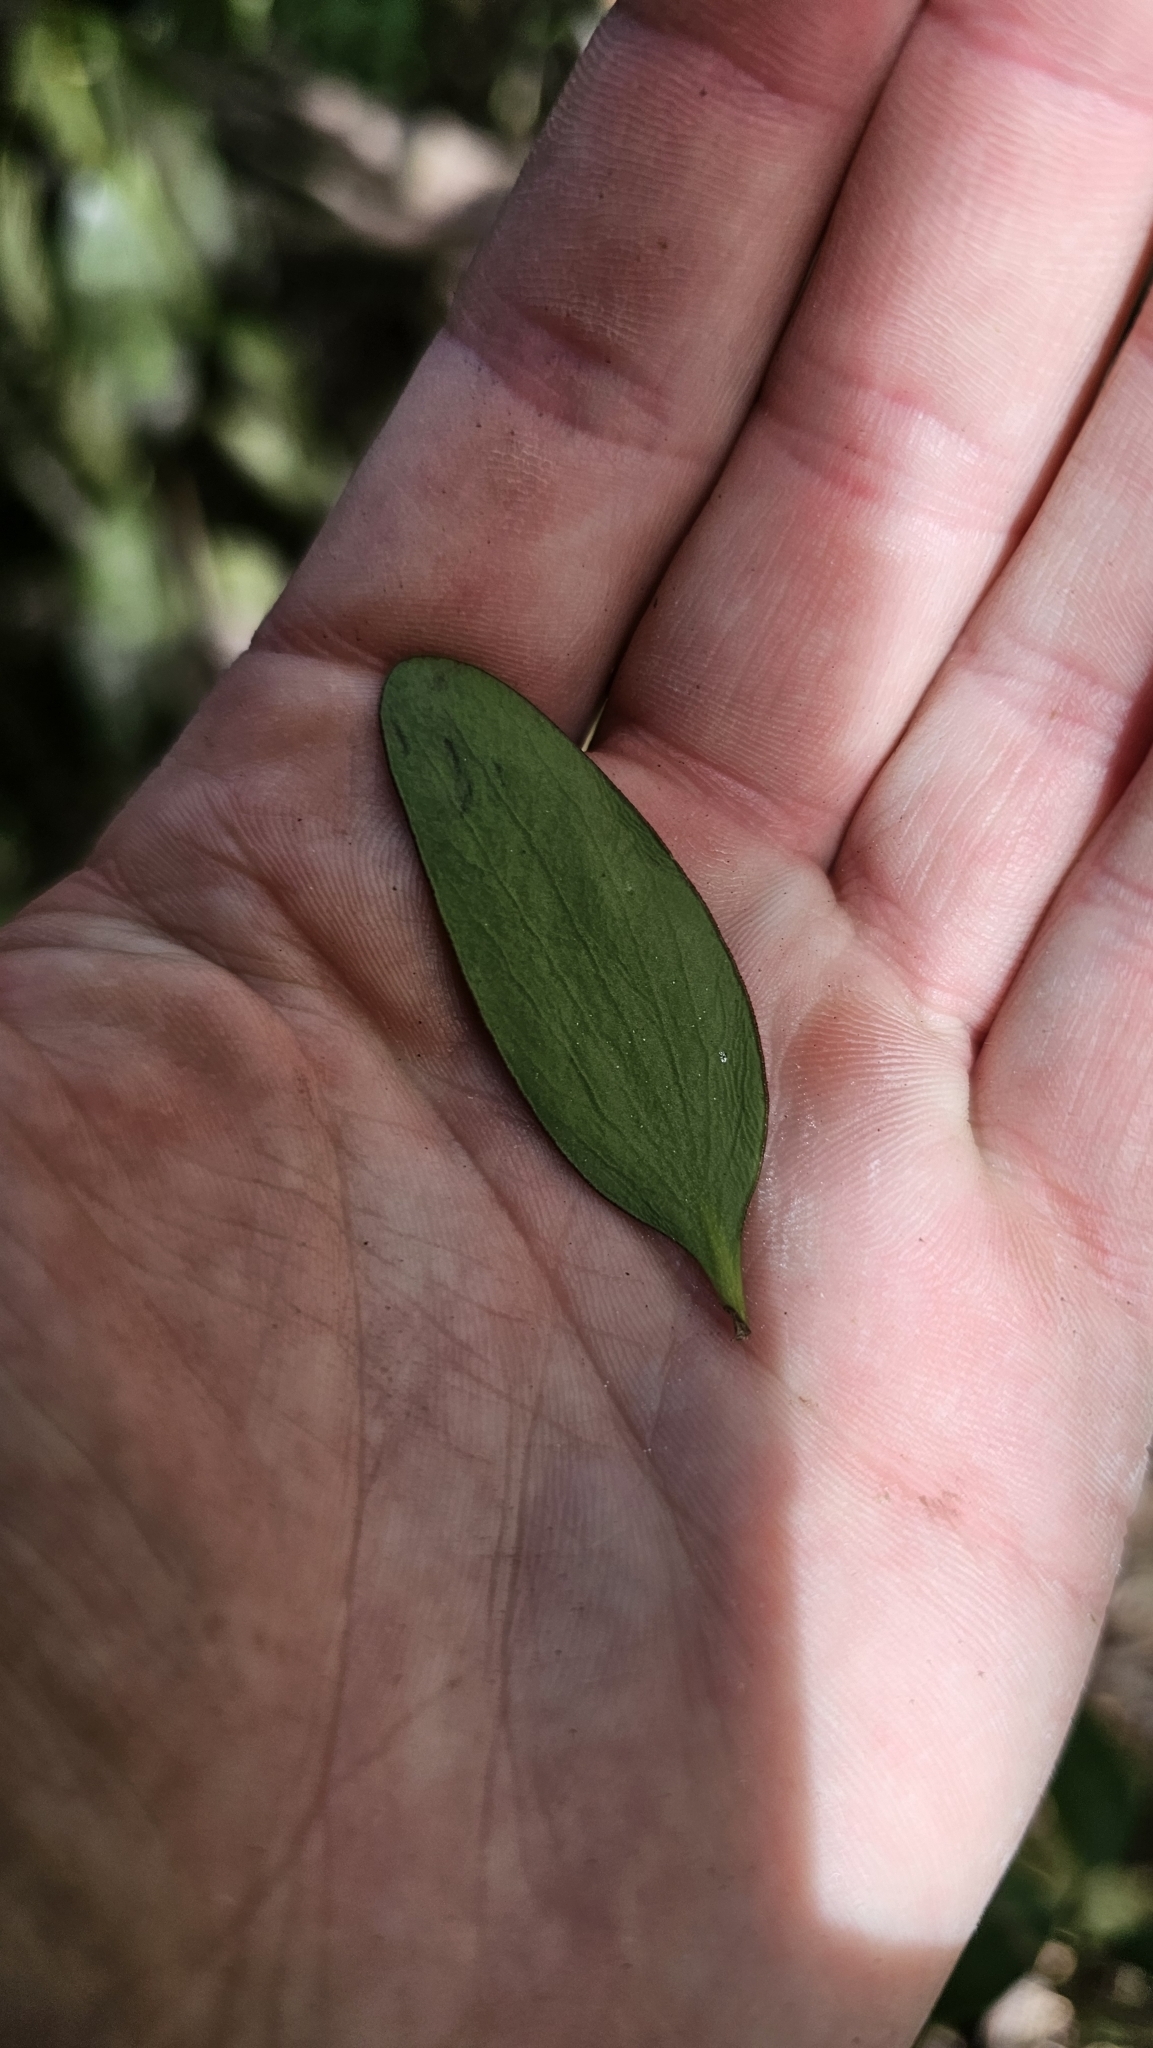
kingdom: Plantae
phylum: Tracheophyta
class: Magnoliopsida
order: Santalales
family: Loranthaceae
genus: Alepis
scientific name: Alepis flavida
